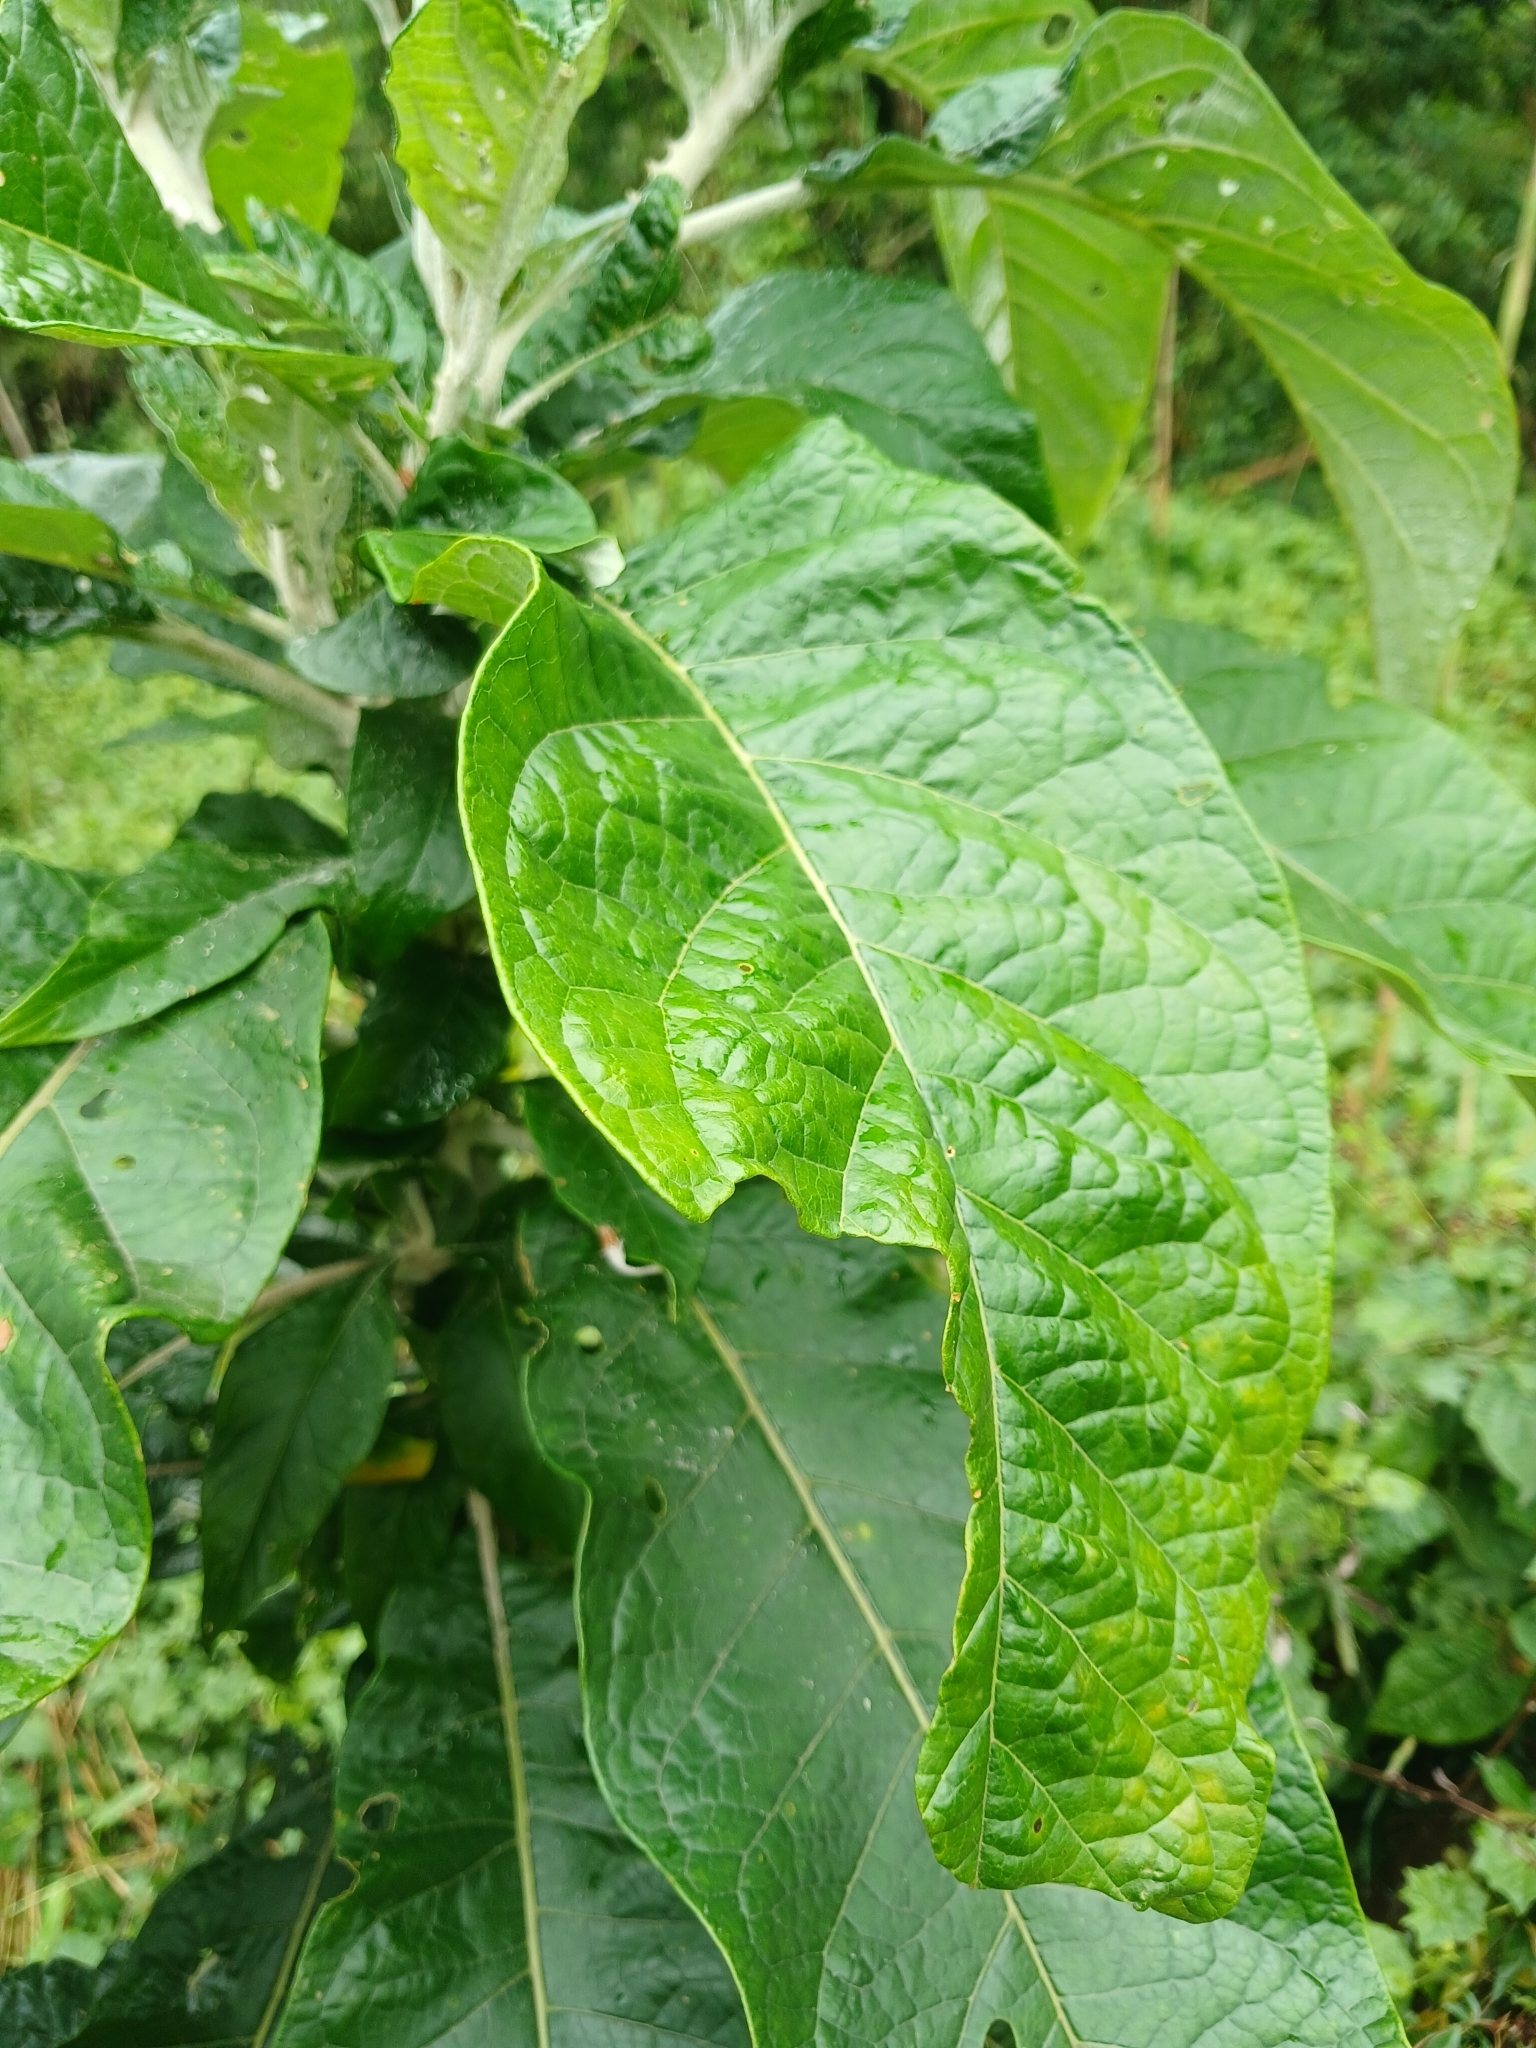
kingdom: Plantae
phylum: Tracheophyta
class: Magnoliopsida
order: Solanales
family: Solanaceae
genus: Solanum
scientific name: Solanum giganteum
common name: Healing-leaf-tree
